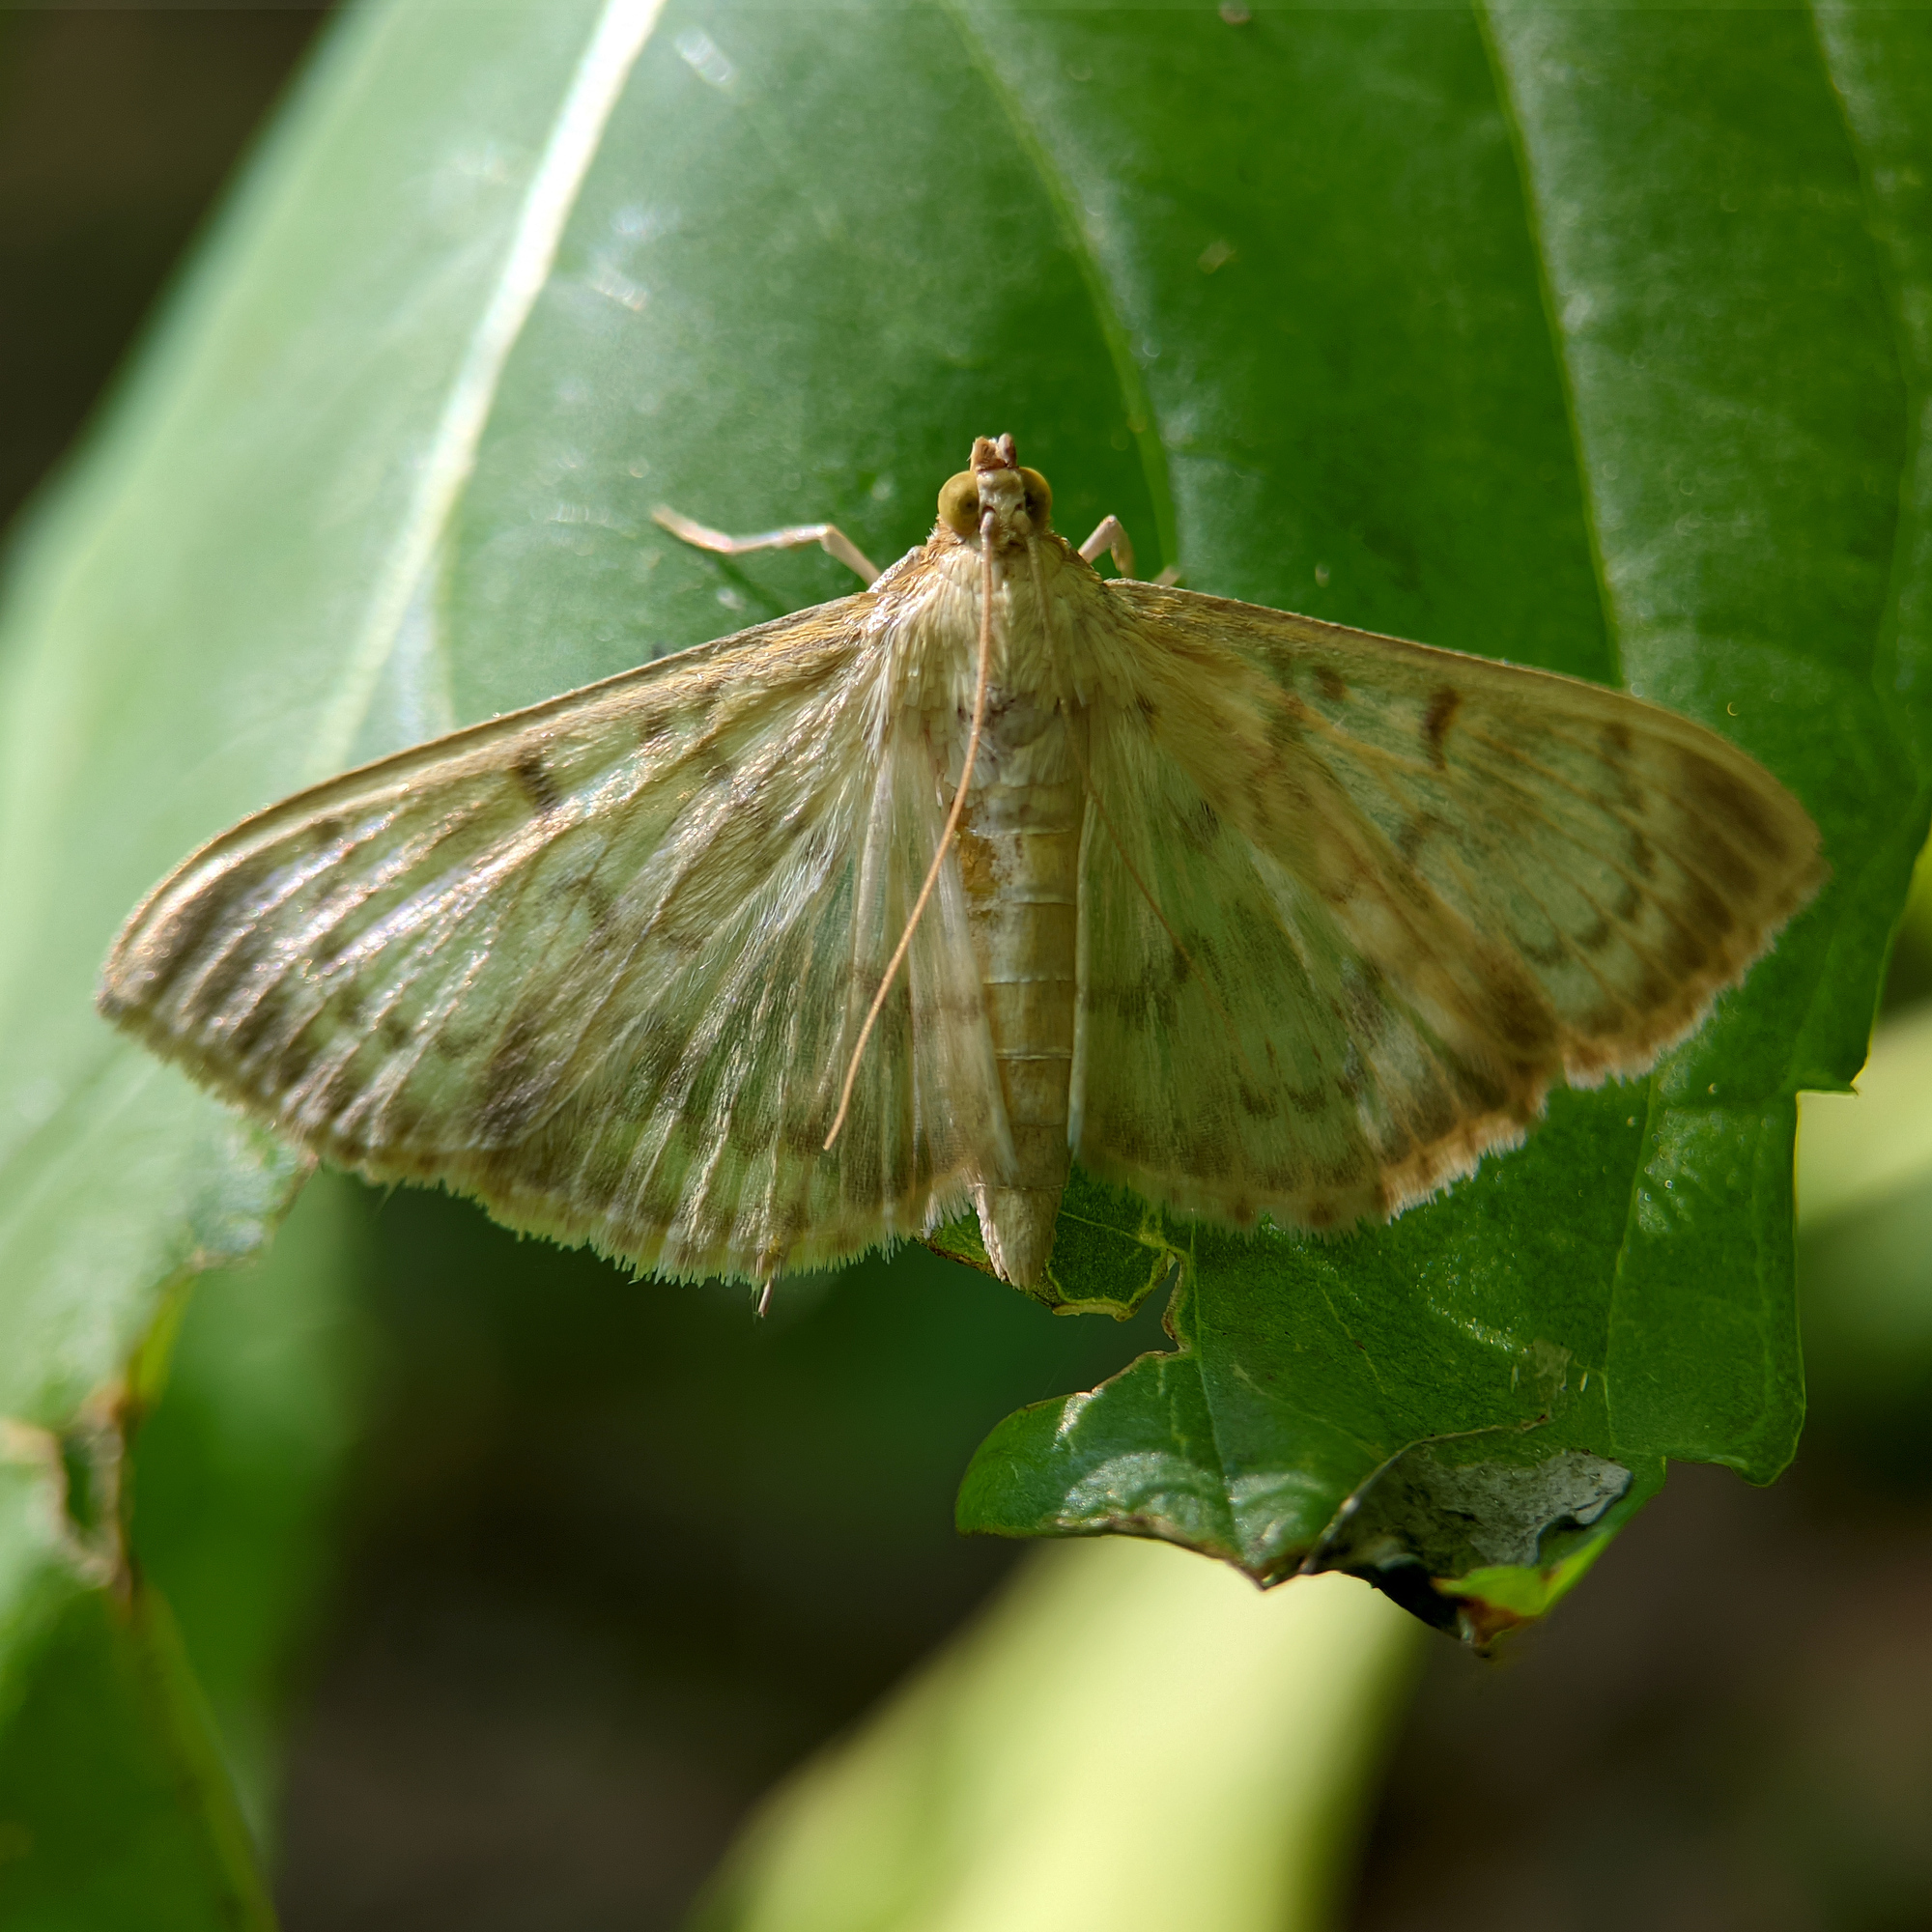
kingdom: Animalia
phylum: Arthropoda
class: Insecta
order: Lepidoptera
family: Crambidae
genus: Patania
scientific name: Patania ruralis
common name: Mother of pearl
